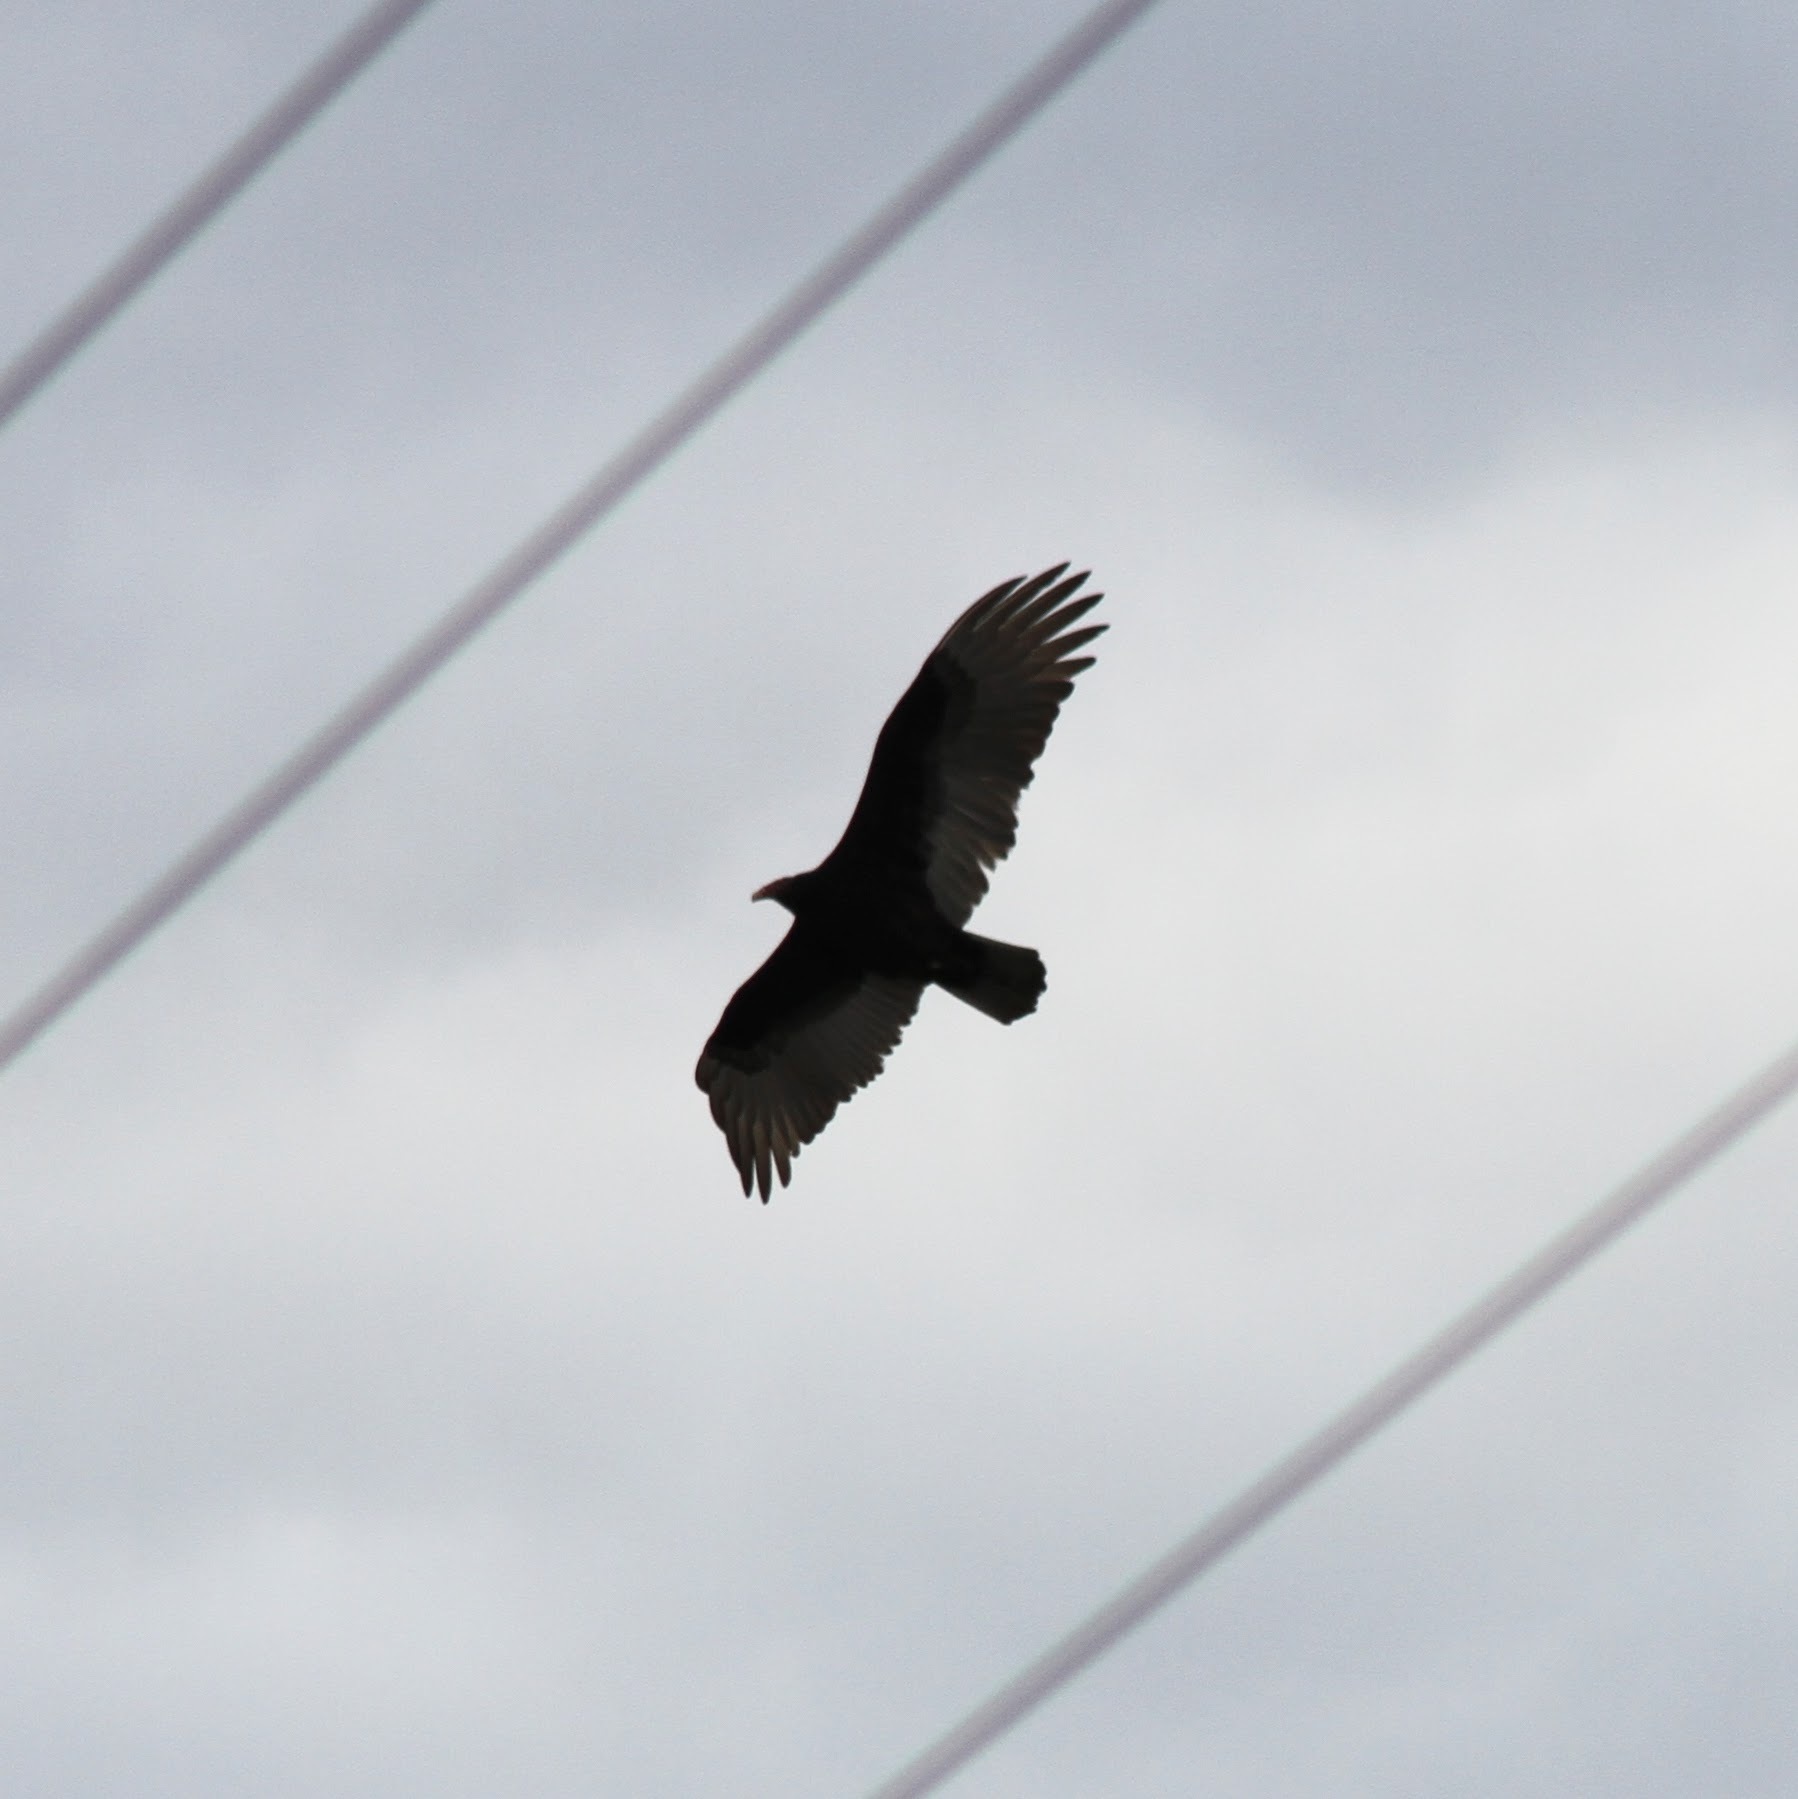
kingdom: Animalia
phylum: Chordata
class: Aves
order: Accipitriformes
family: Cathartidae
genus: Cathartes
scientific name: Cathartes aura
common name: Turkey vulture
